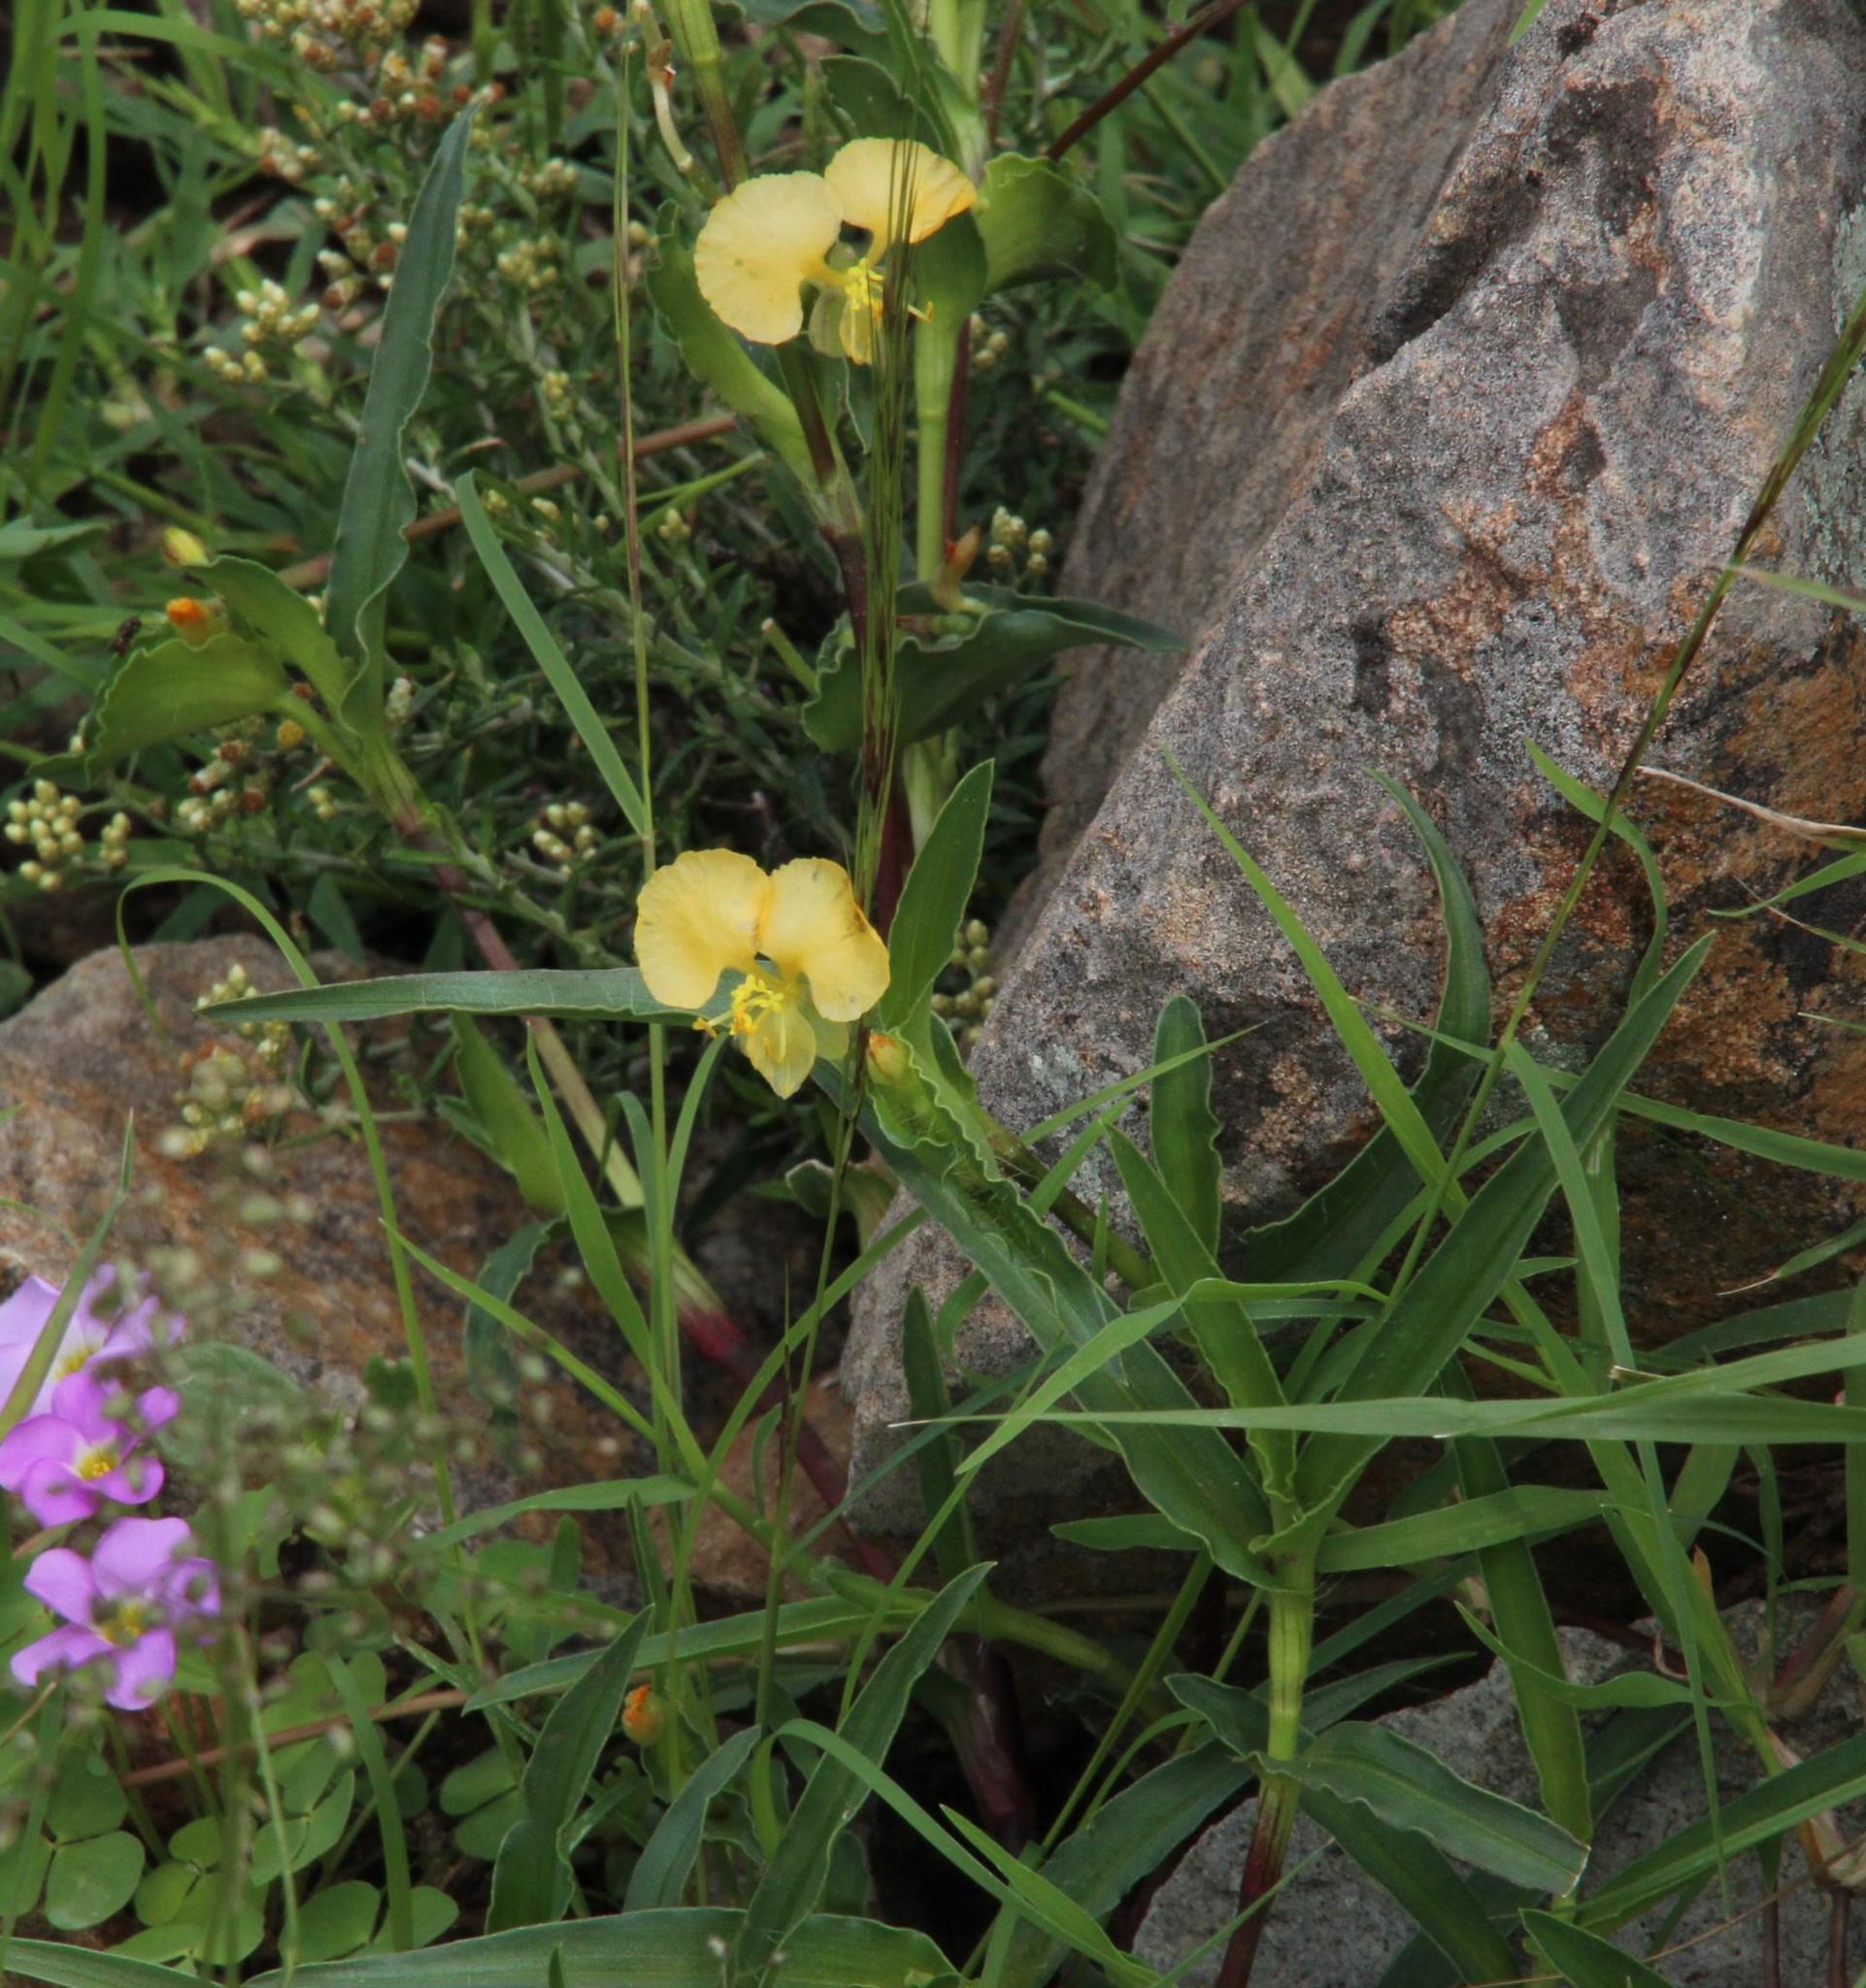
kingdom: Plantae
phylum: Tracheophyta
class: Liliopsida
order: Commelinales
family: Commelinaceae
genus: Commelina
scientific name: Commelina africana
